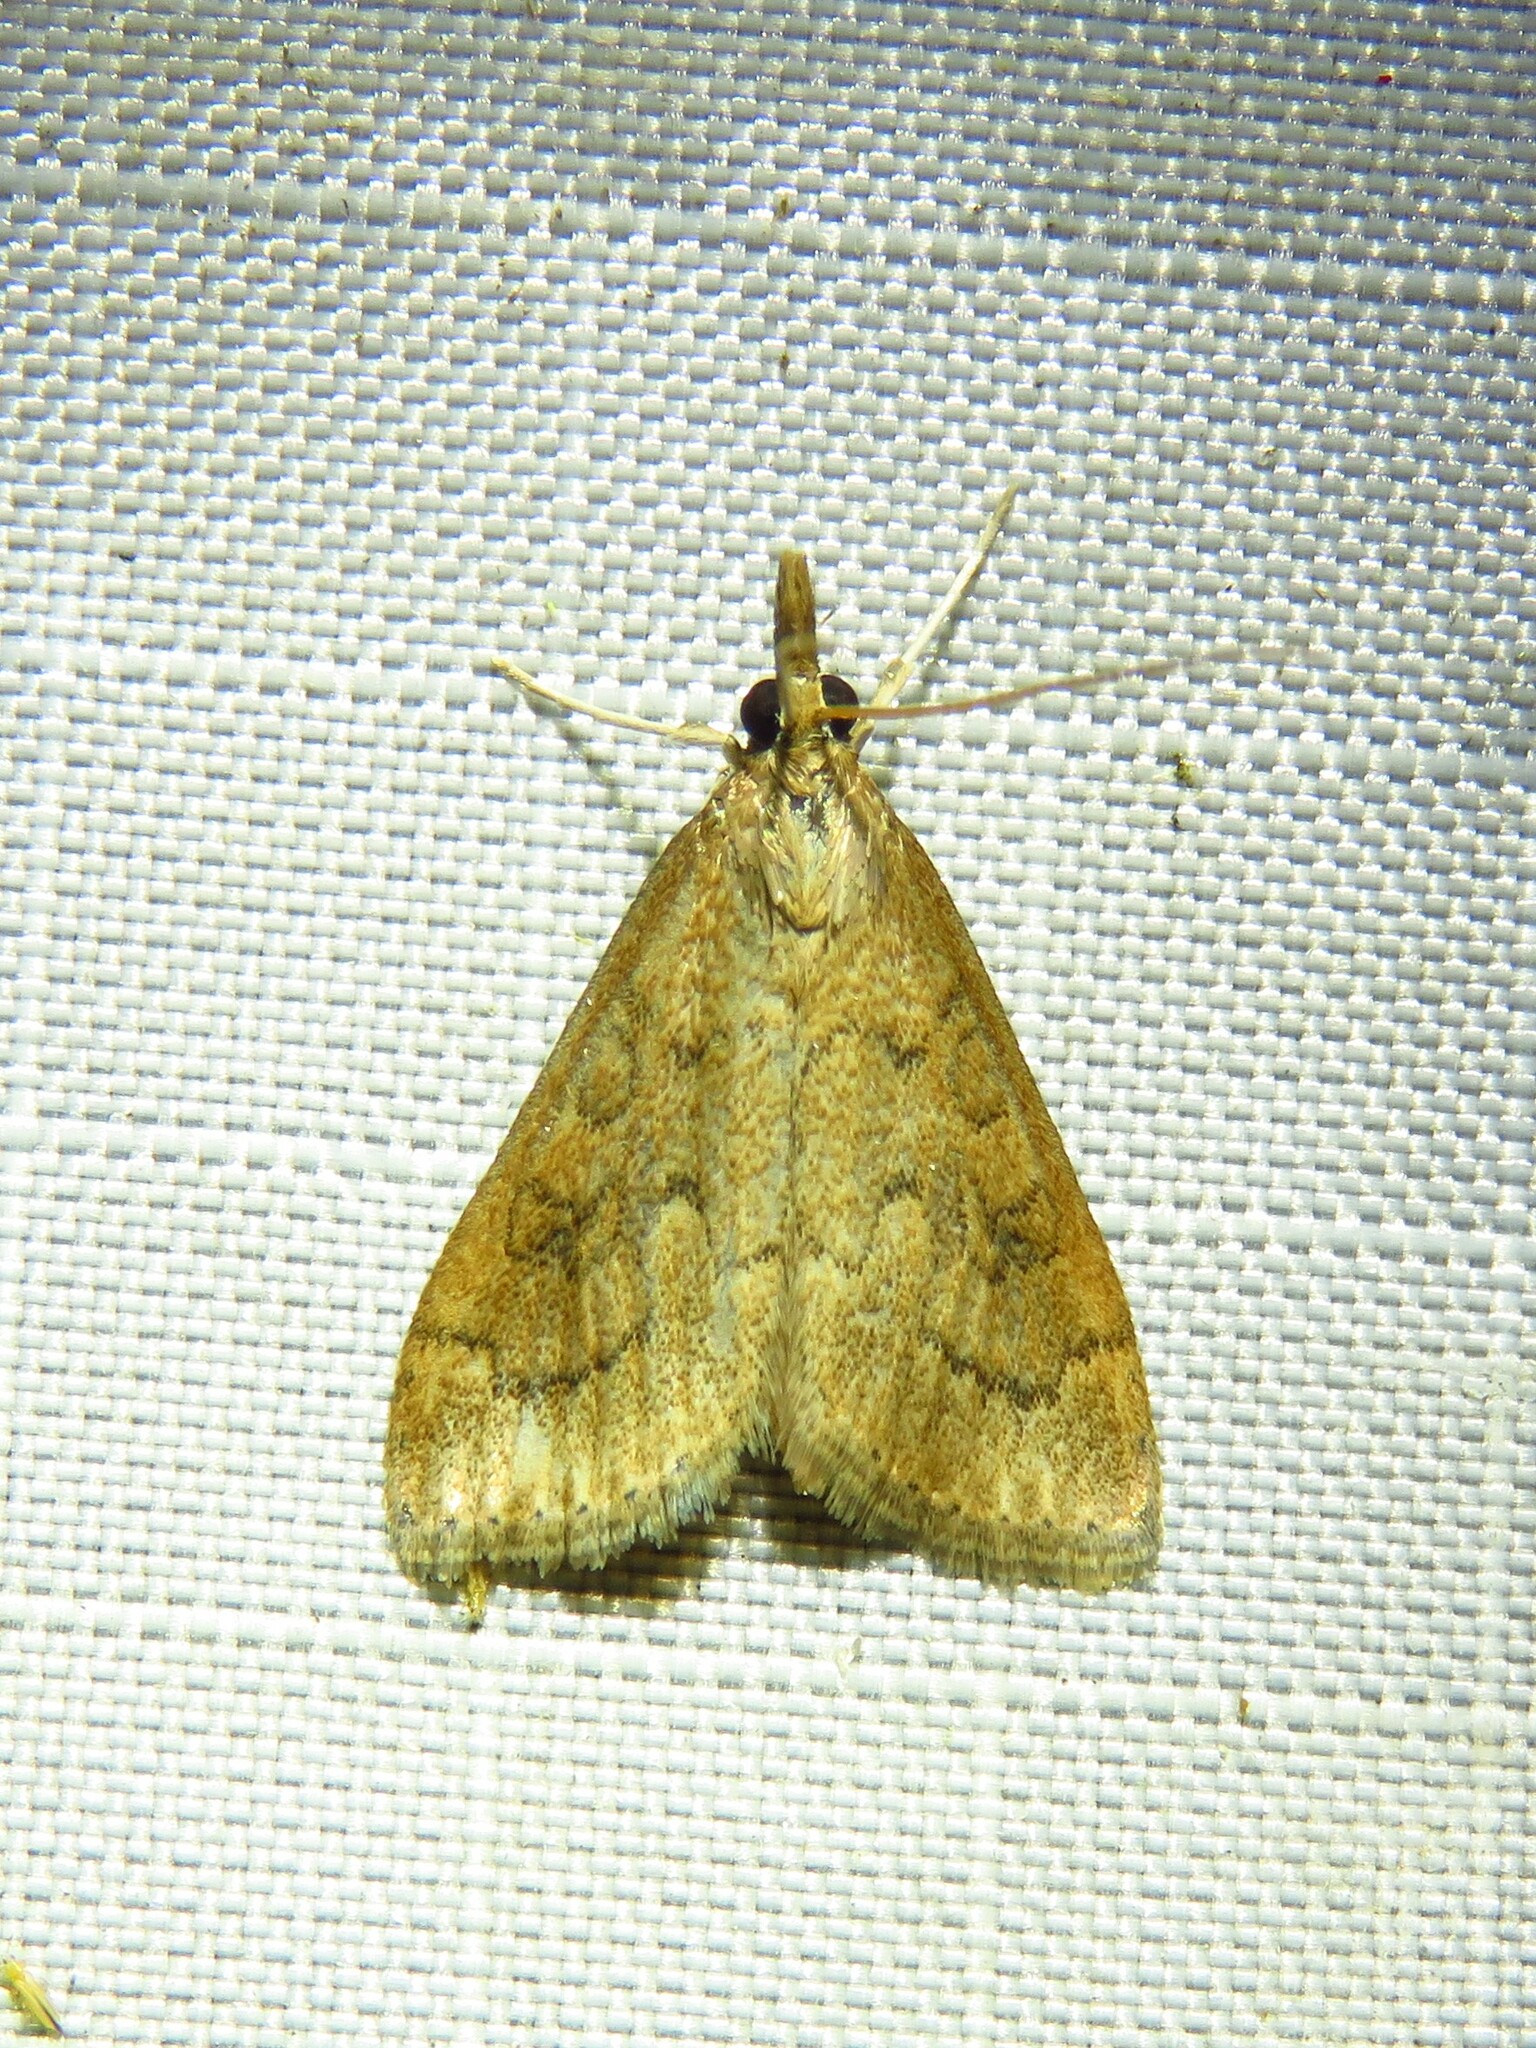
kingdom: Animalia
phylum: Arthropoda
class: Insecta
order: Lepidoptera
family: Crambidae
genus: Udea
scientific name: Udea rubigalis
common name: Celery leaftier moth
